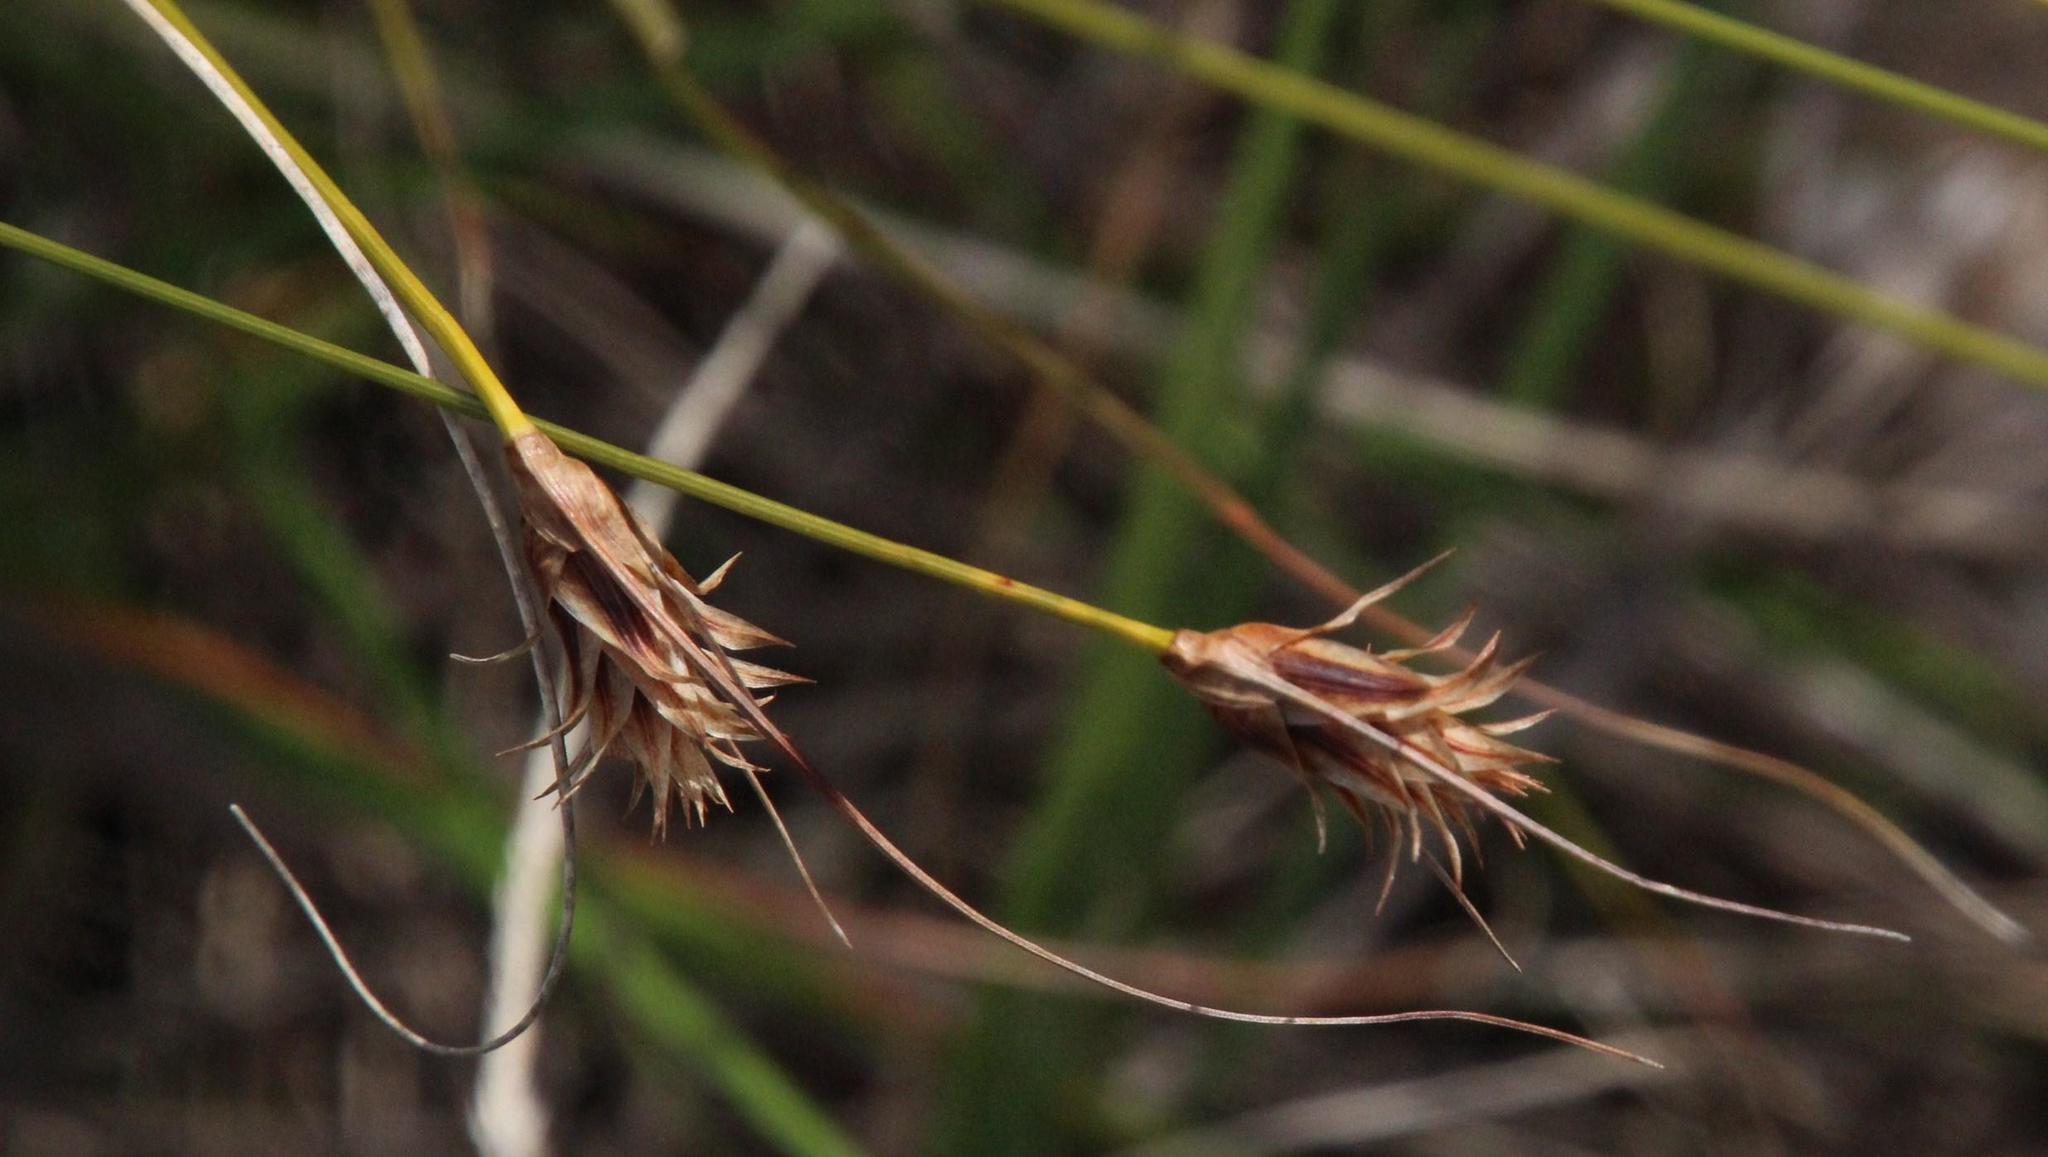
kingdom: Plantae
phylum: Tracheophyta
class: Liliopsida
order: Poales
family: Cyperaceae
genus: Ficinia
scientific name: Ficinia nigrescens
